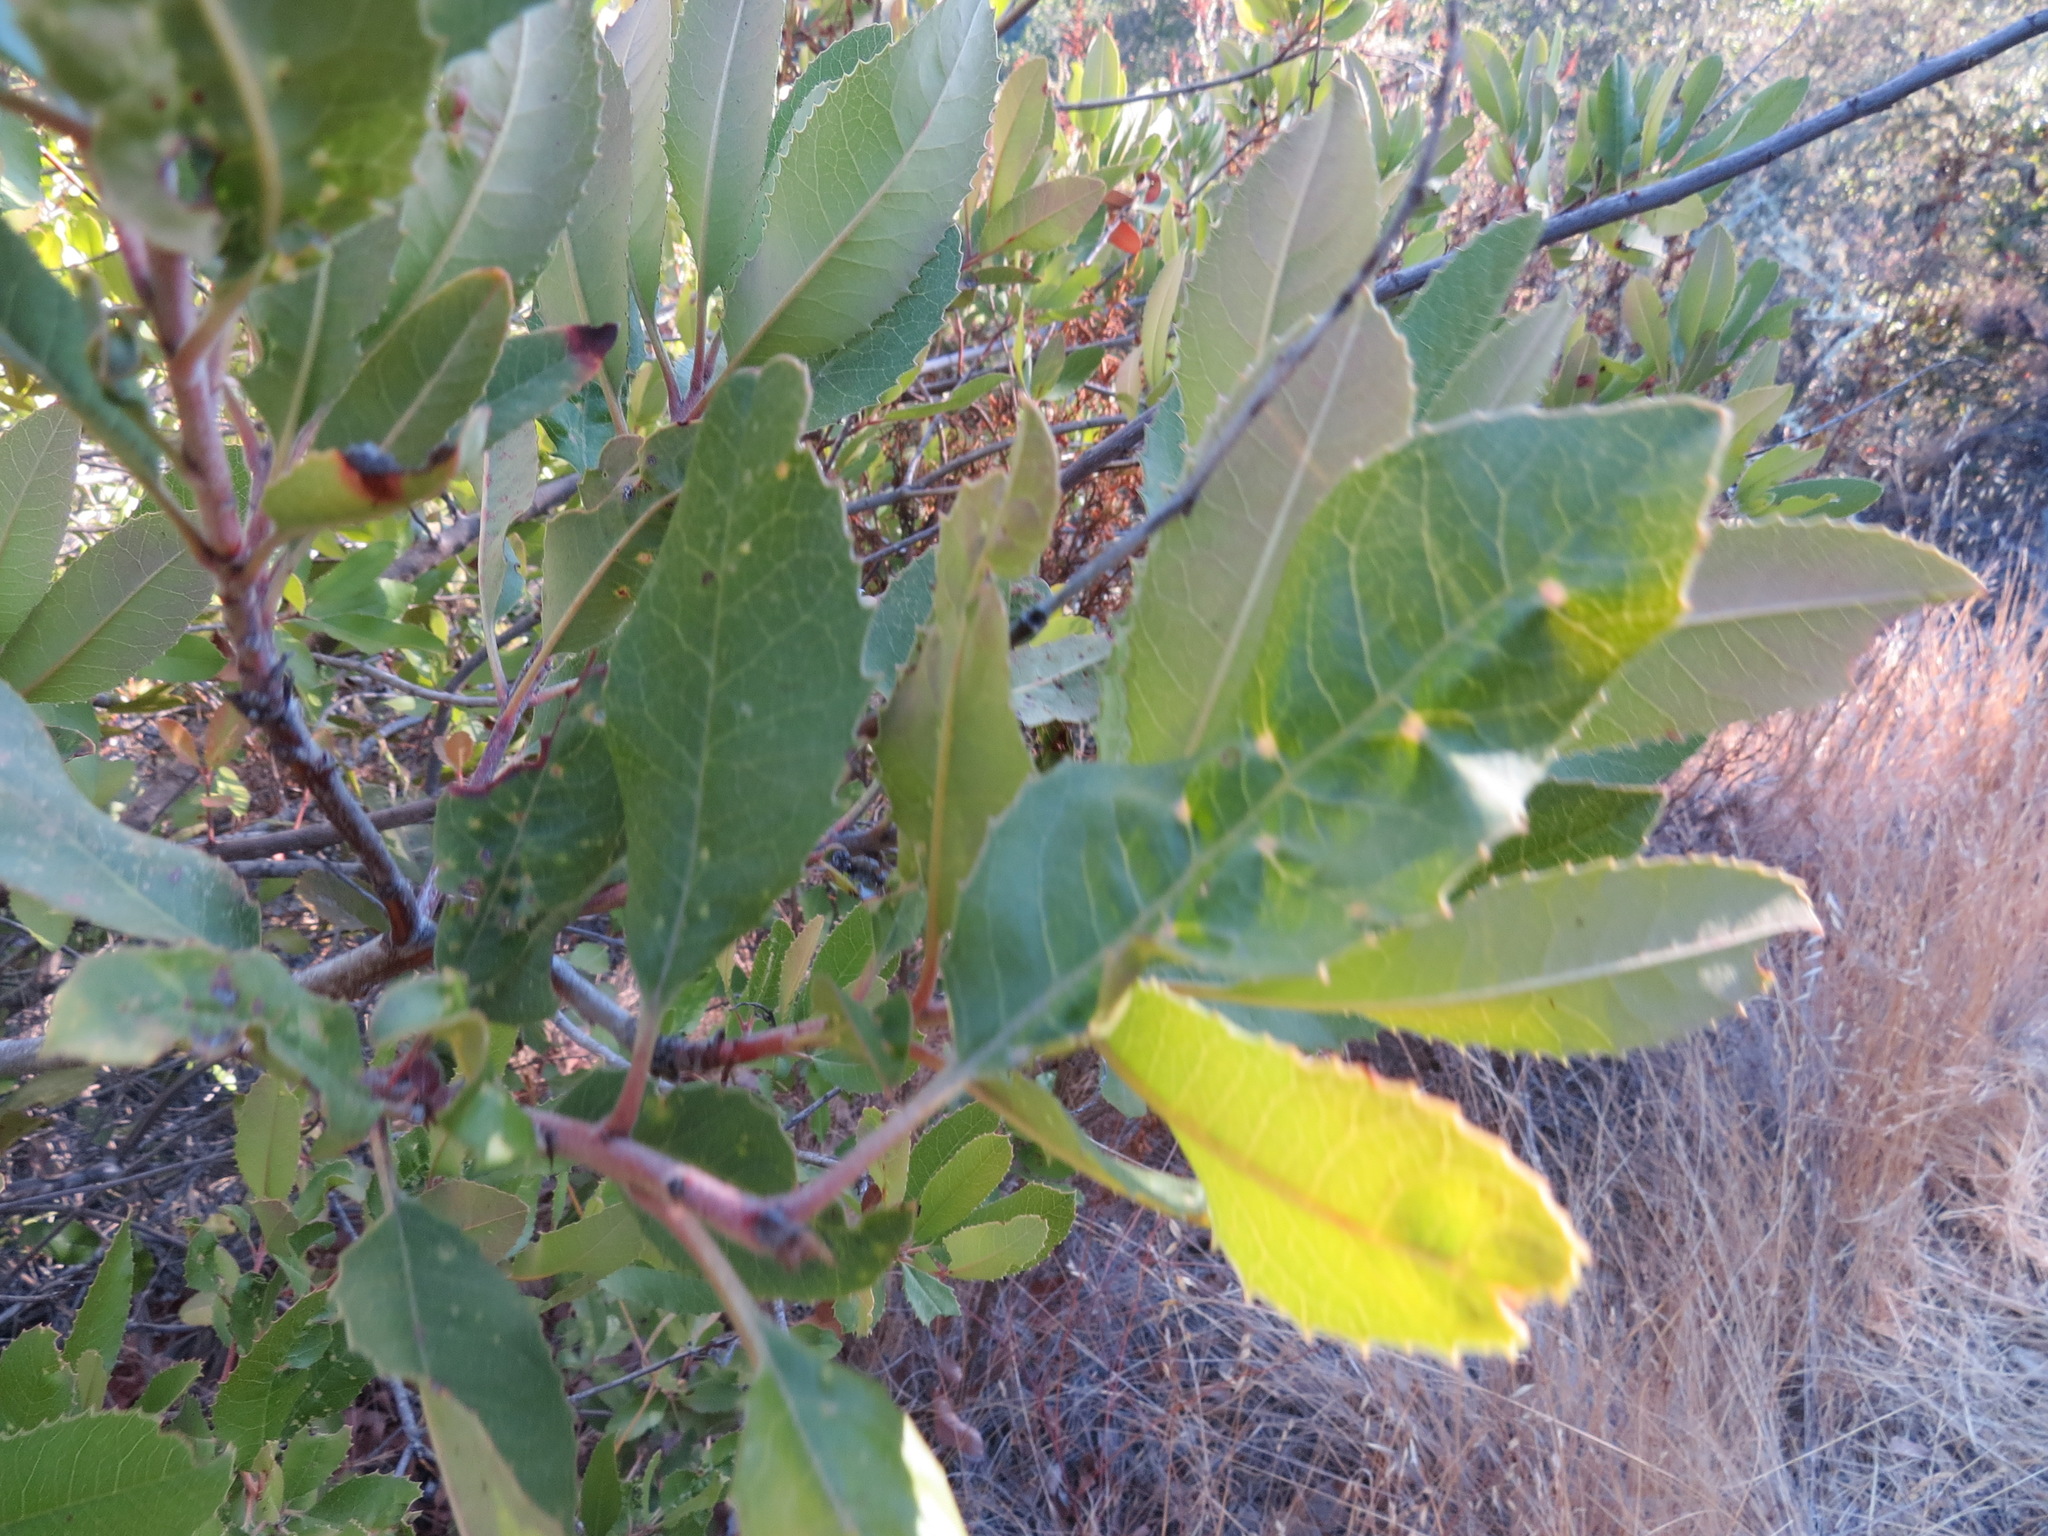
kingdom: Animalia
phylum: Arthropoda
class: Insecta
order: Thysanoptera
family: Phlaeothripidae
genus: Liothrips
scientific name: Liothrips ilex
